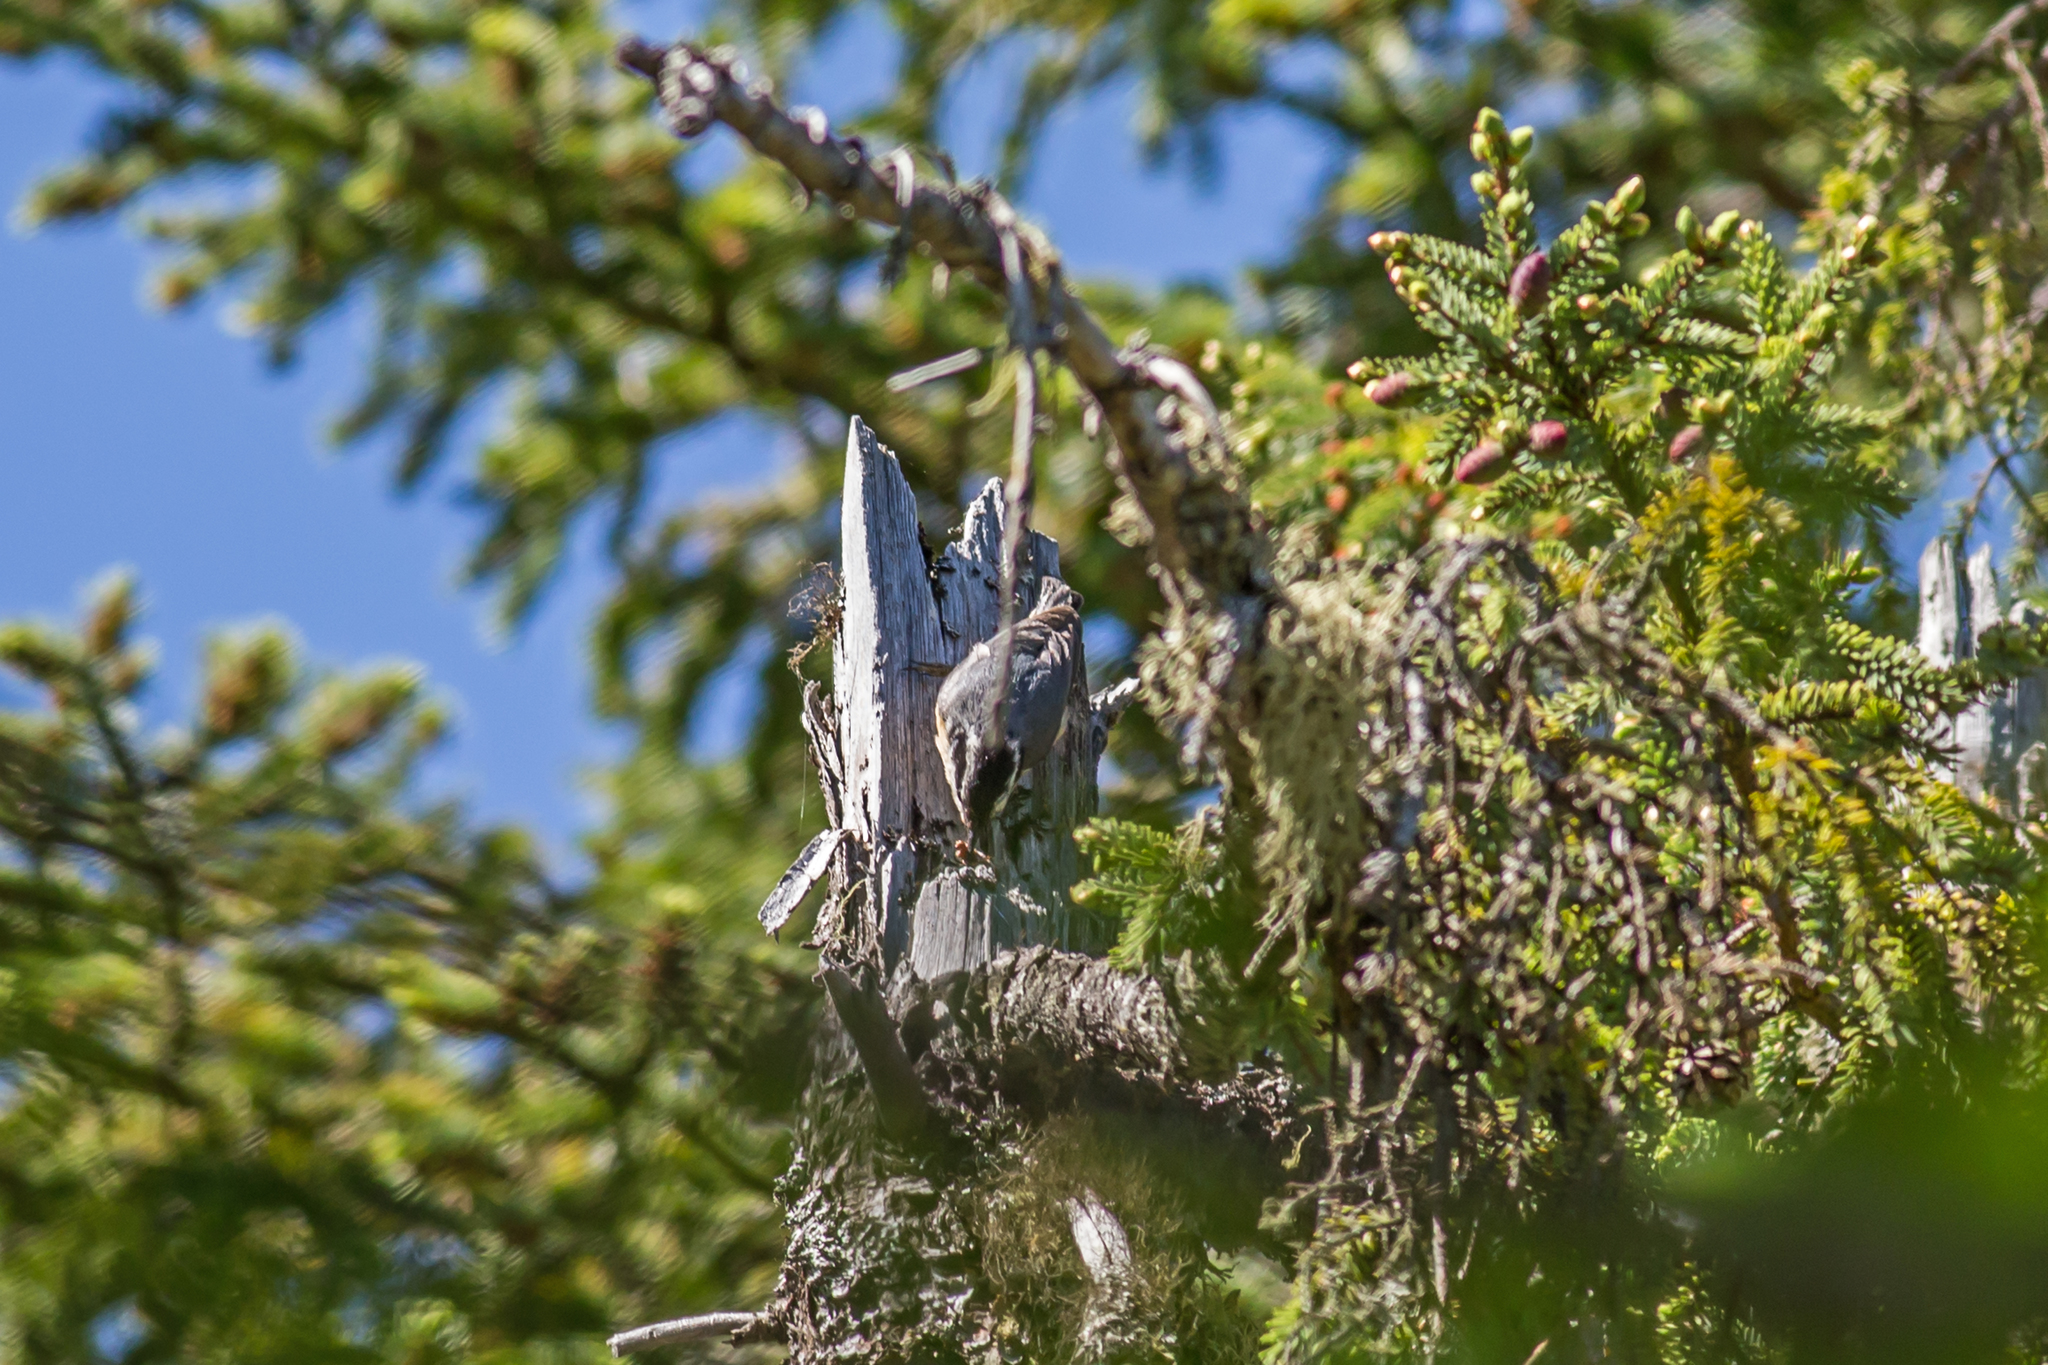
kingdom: Animalia
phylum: Chordata
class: Aves
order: Passeriformes
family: Sittidae
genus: Sitta
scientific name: Sitta canadensis
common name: Red-breasted nuthatch
